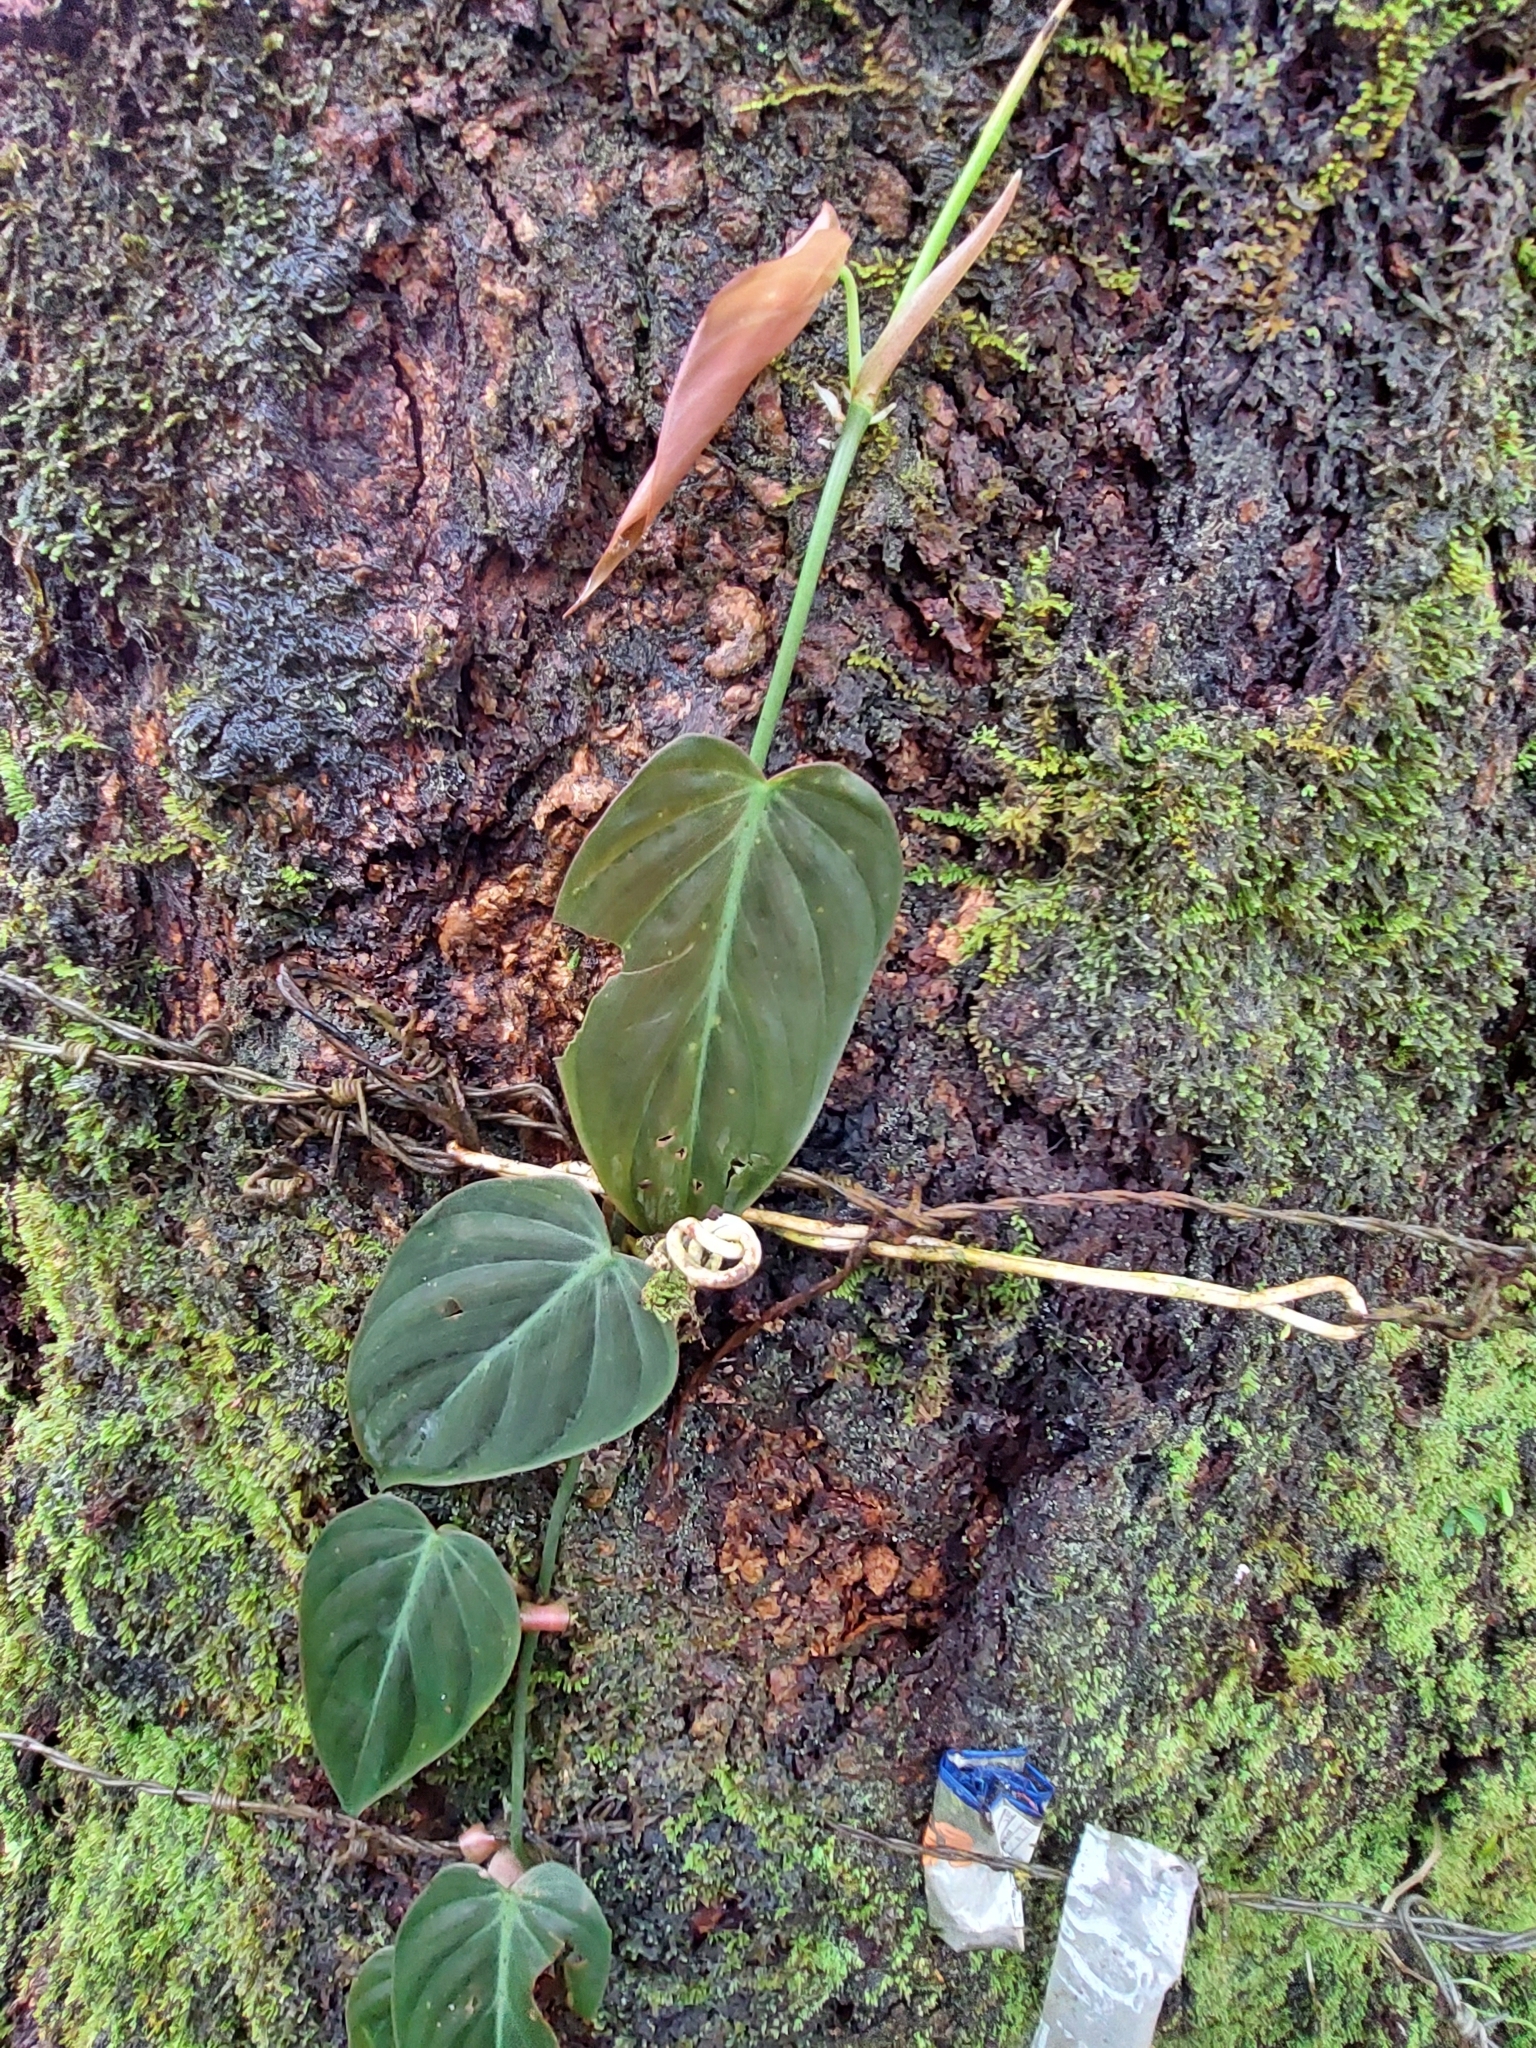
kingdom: Plantae
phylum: Tracheophyta
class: Liliopsida
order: Alismatales
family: Araceae
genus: Philodendron
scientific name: Philodendron hederaceum
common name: Vilevine
